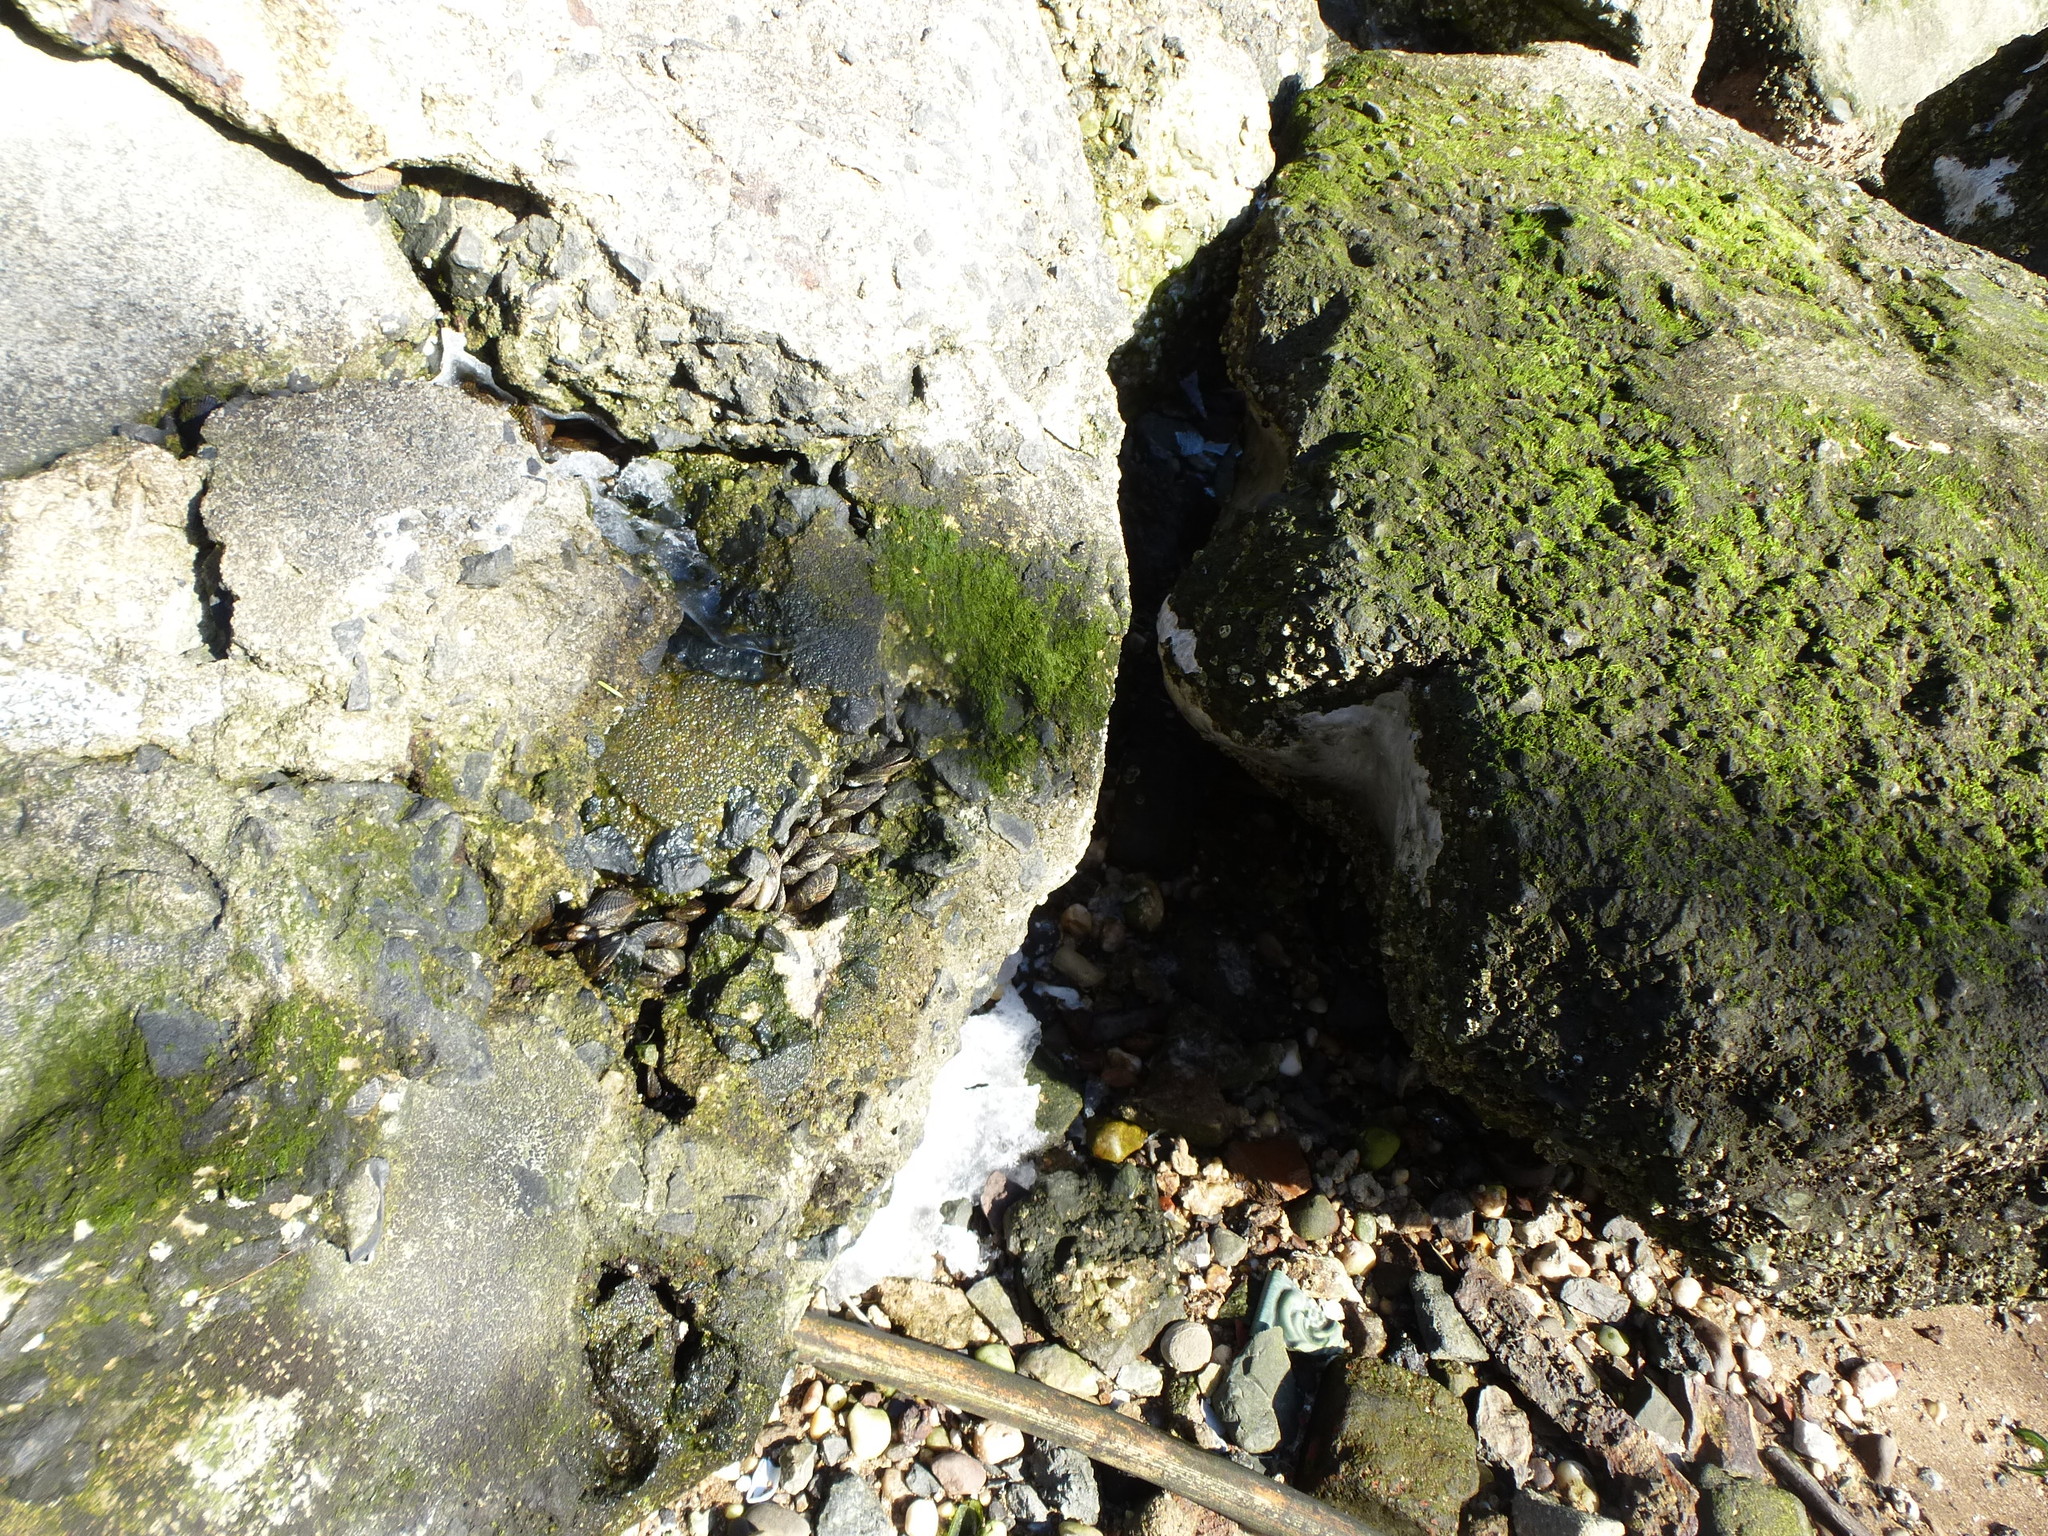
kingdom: Animalia
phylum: Mollusca
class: Bivalvia
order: Mytilida
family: Mytilidae
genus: Geukensia
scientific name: Geukensia demissa
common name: Ribbed mussel
